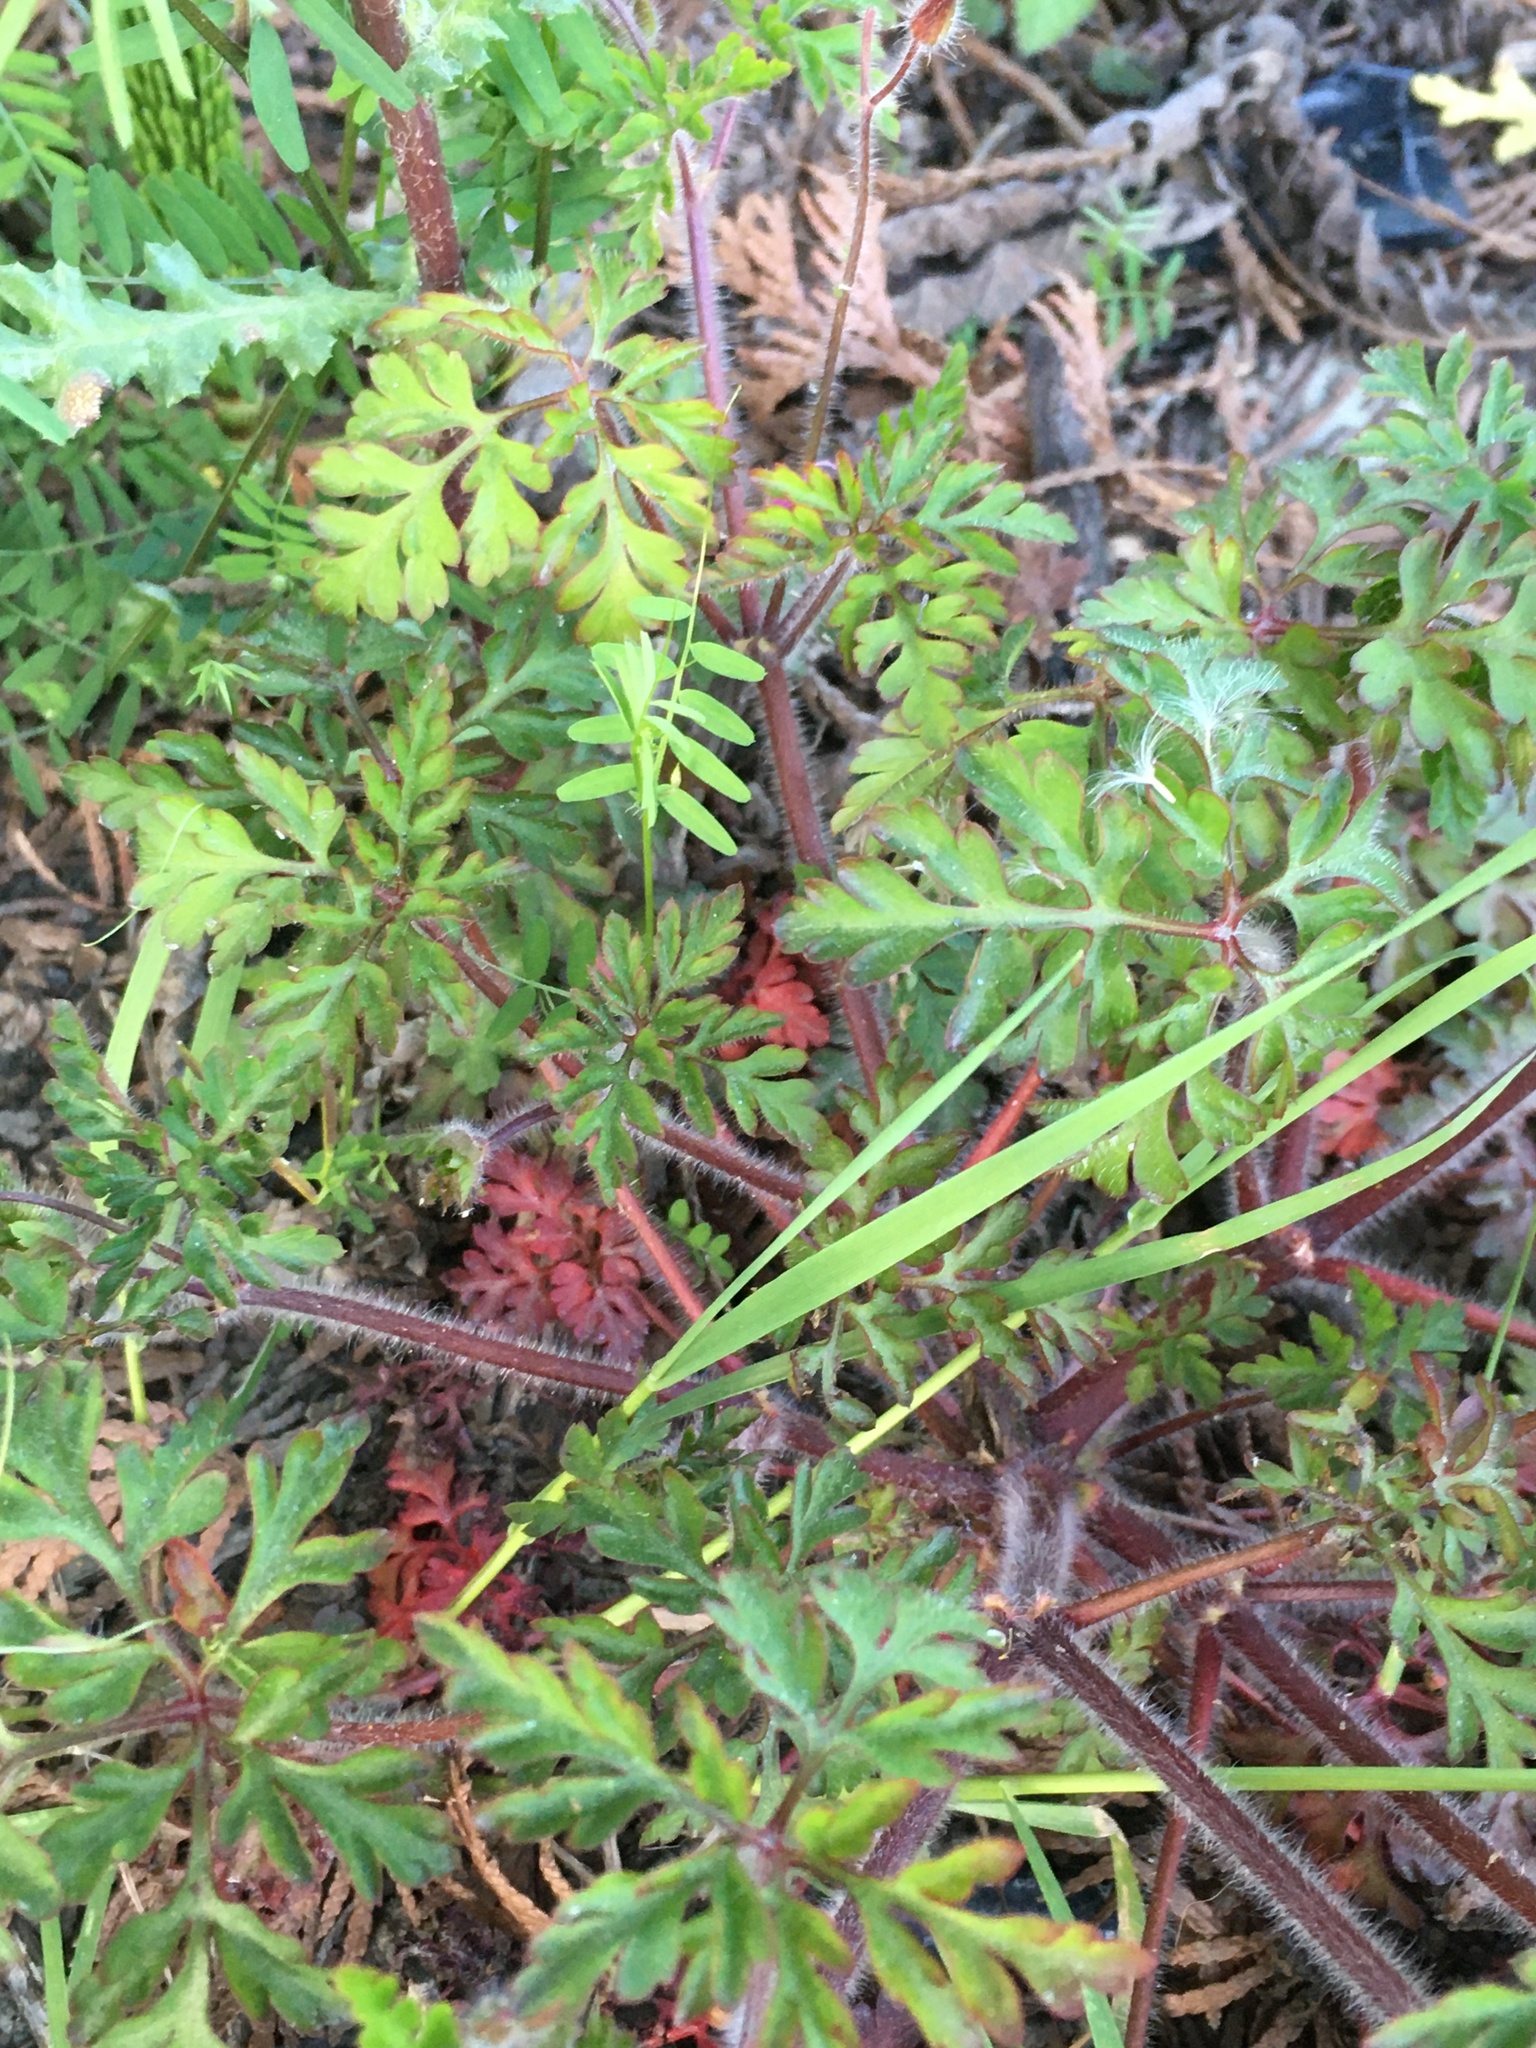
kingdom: Plantae
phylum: Tracheophyta
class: Magnoliopsida
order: Geraniales
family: Geraniaceae
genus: Geranium
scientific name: Geranium robertianum
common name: Herb-robert
